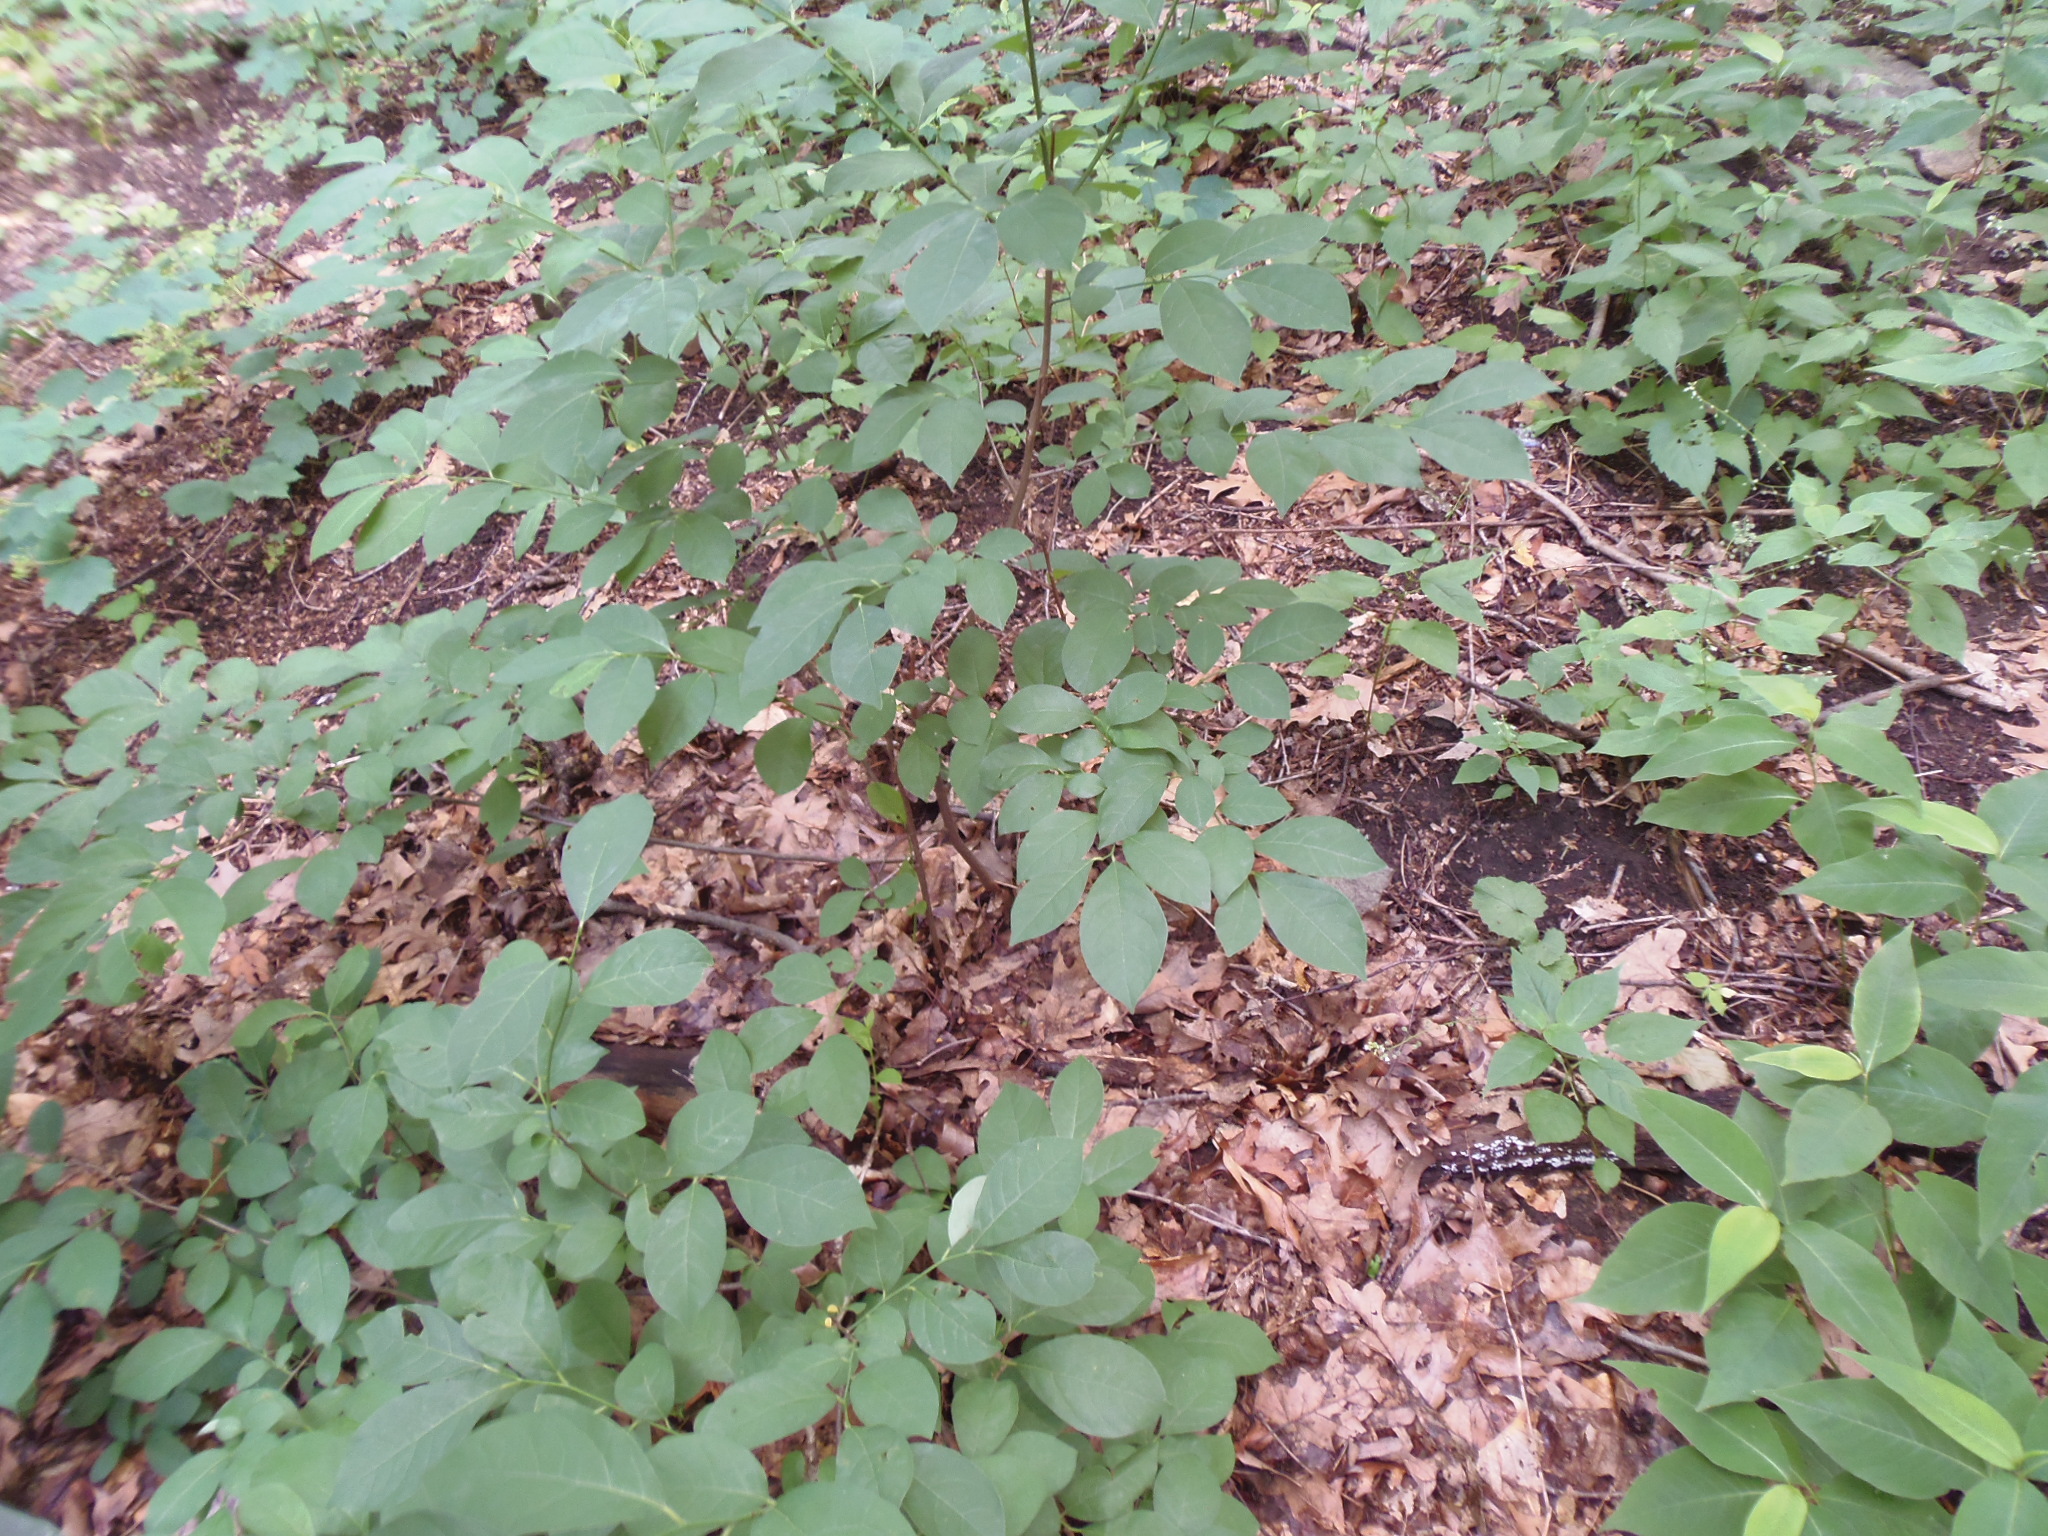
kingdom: Plantae
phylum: Tracheophyta
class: Magnoliopsida
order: Laurales
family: Lauraceae
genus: Lindera
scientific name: Lindera benzoin
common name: Spicebush
